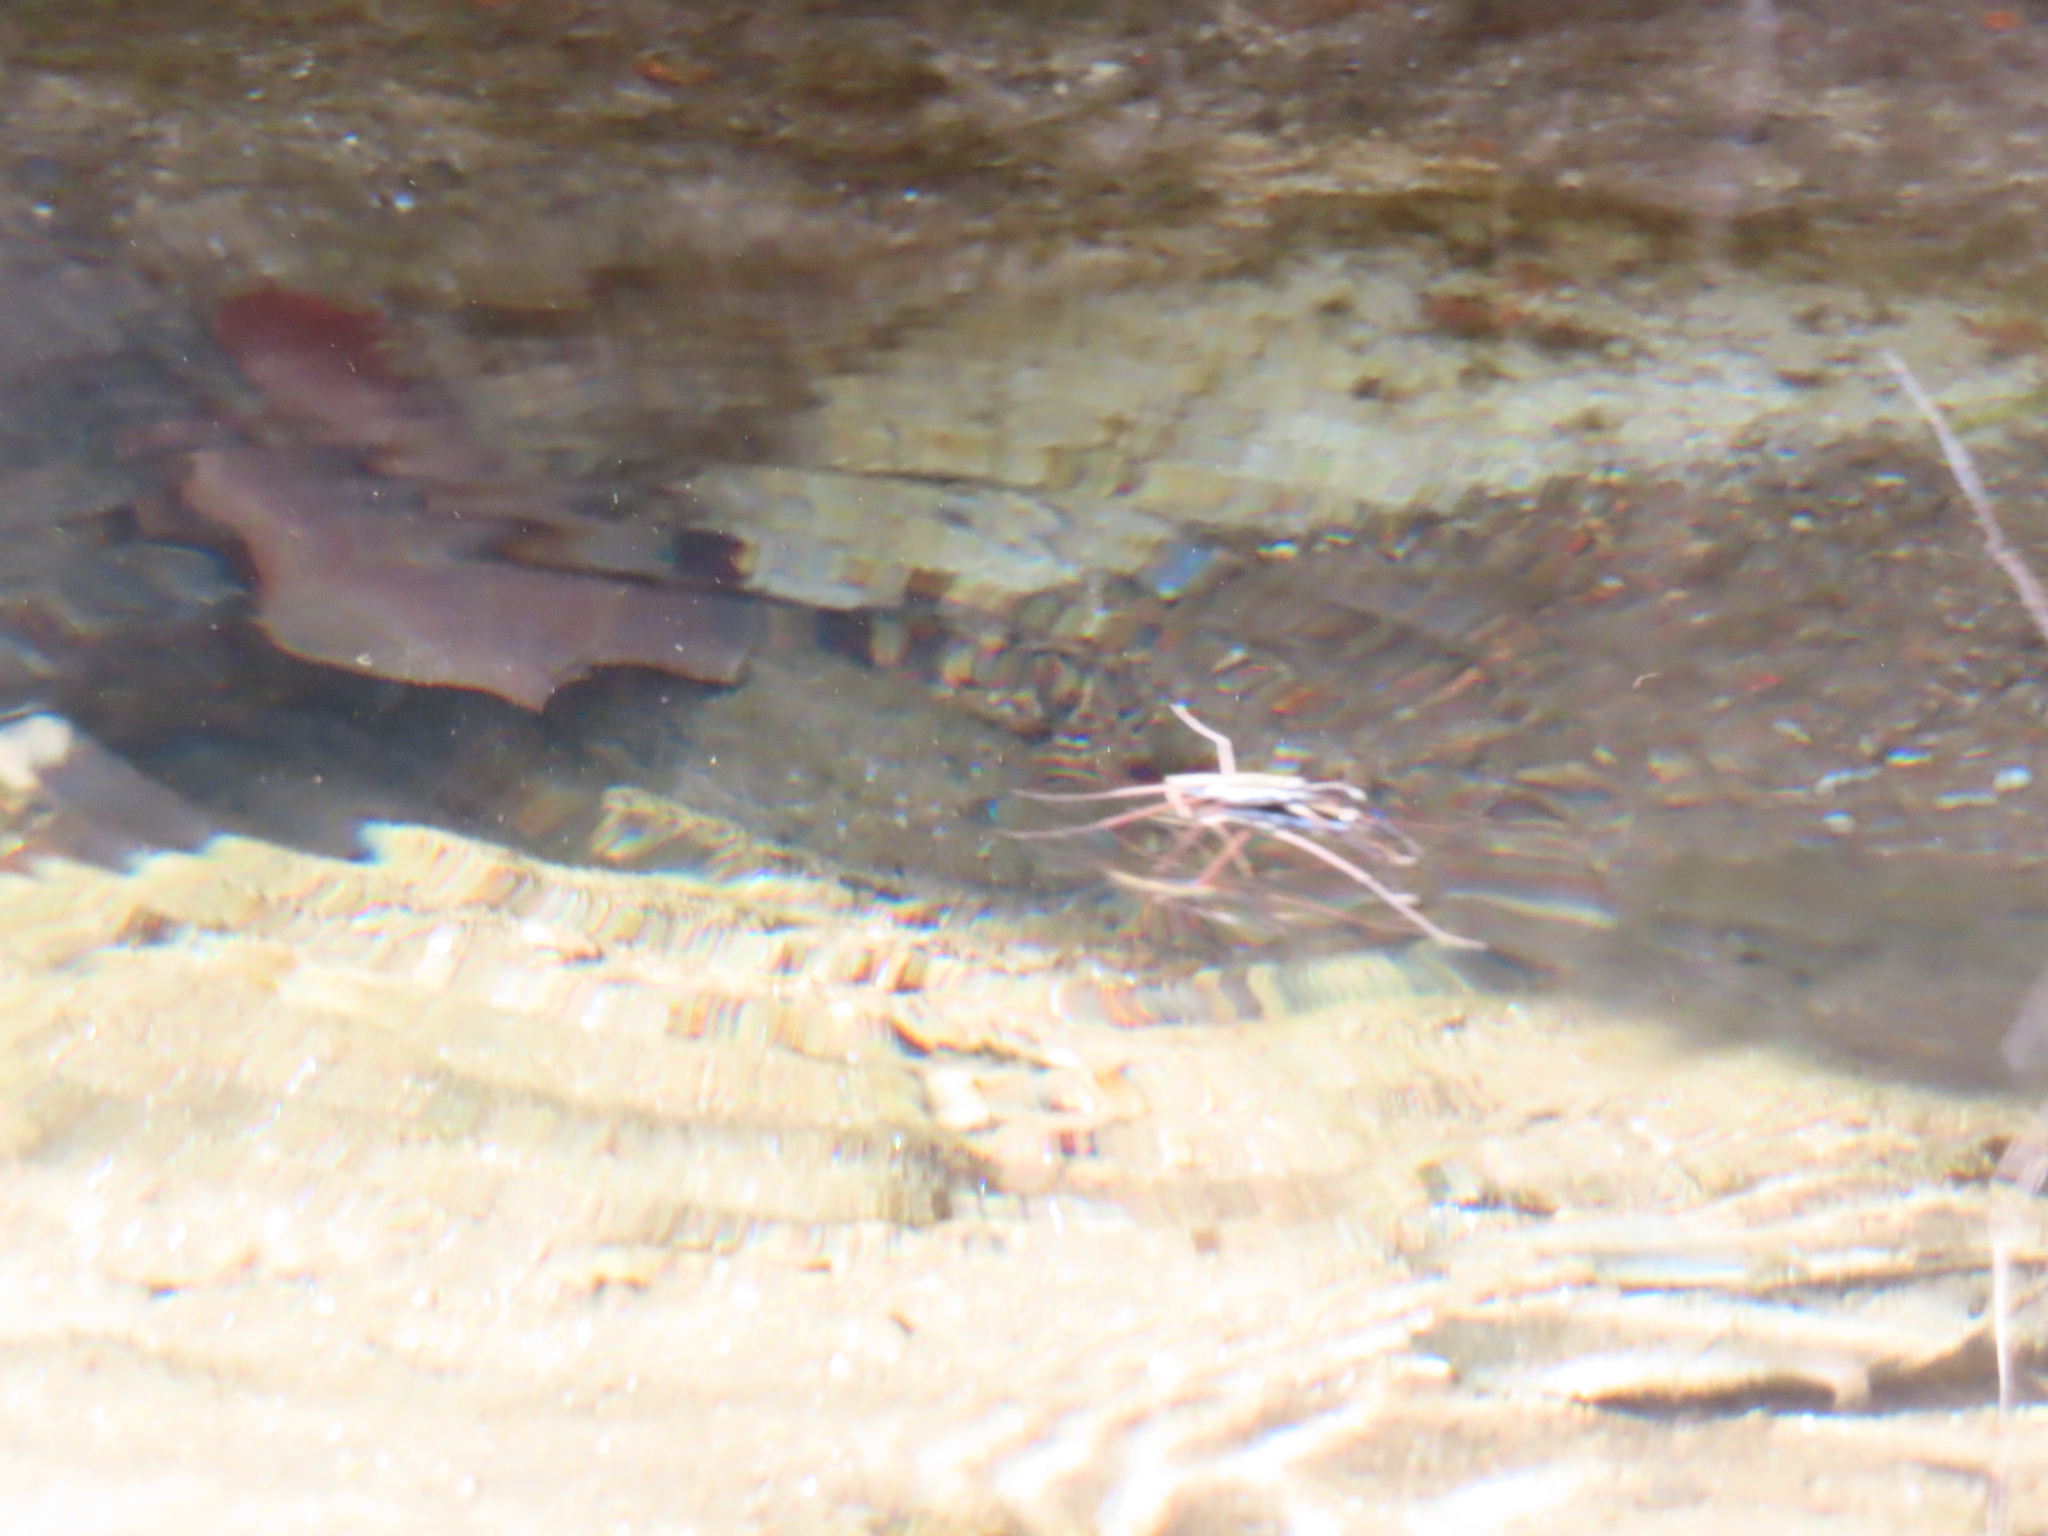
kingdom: Animalia
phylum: Arthropoda
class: Insecta
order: Hemiptera
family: Gerridae
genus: Aquarius
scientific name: Aquarius remigis
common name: Common water strider
